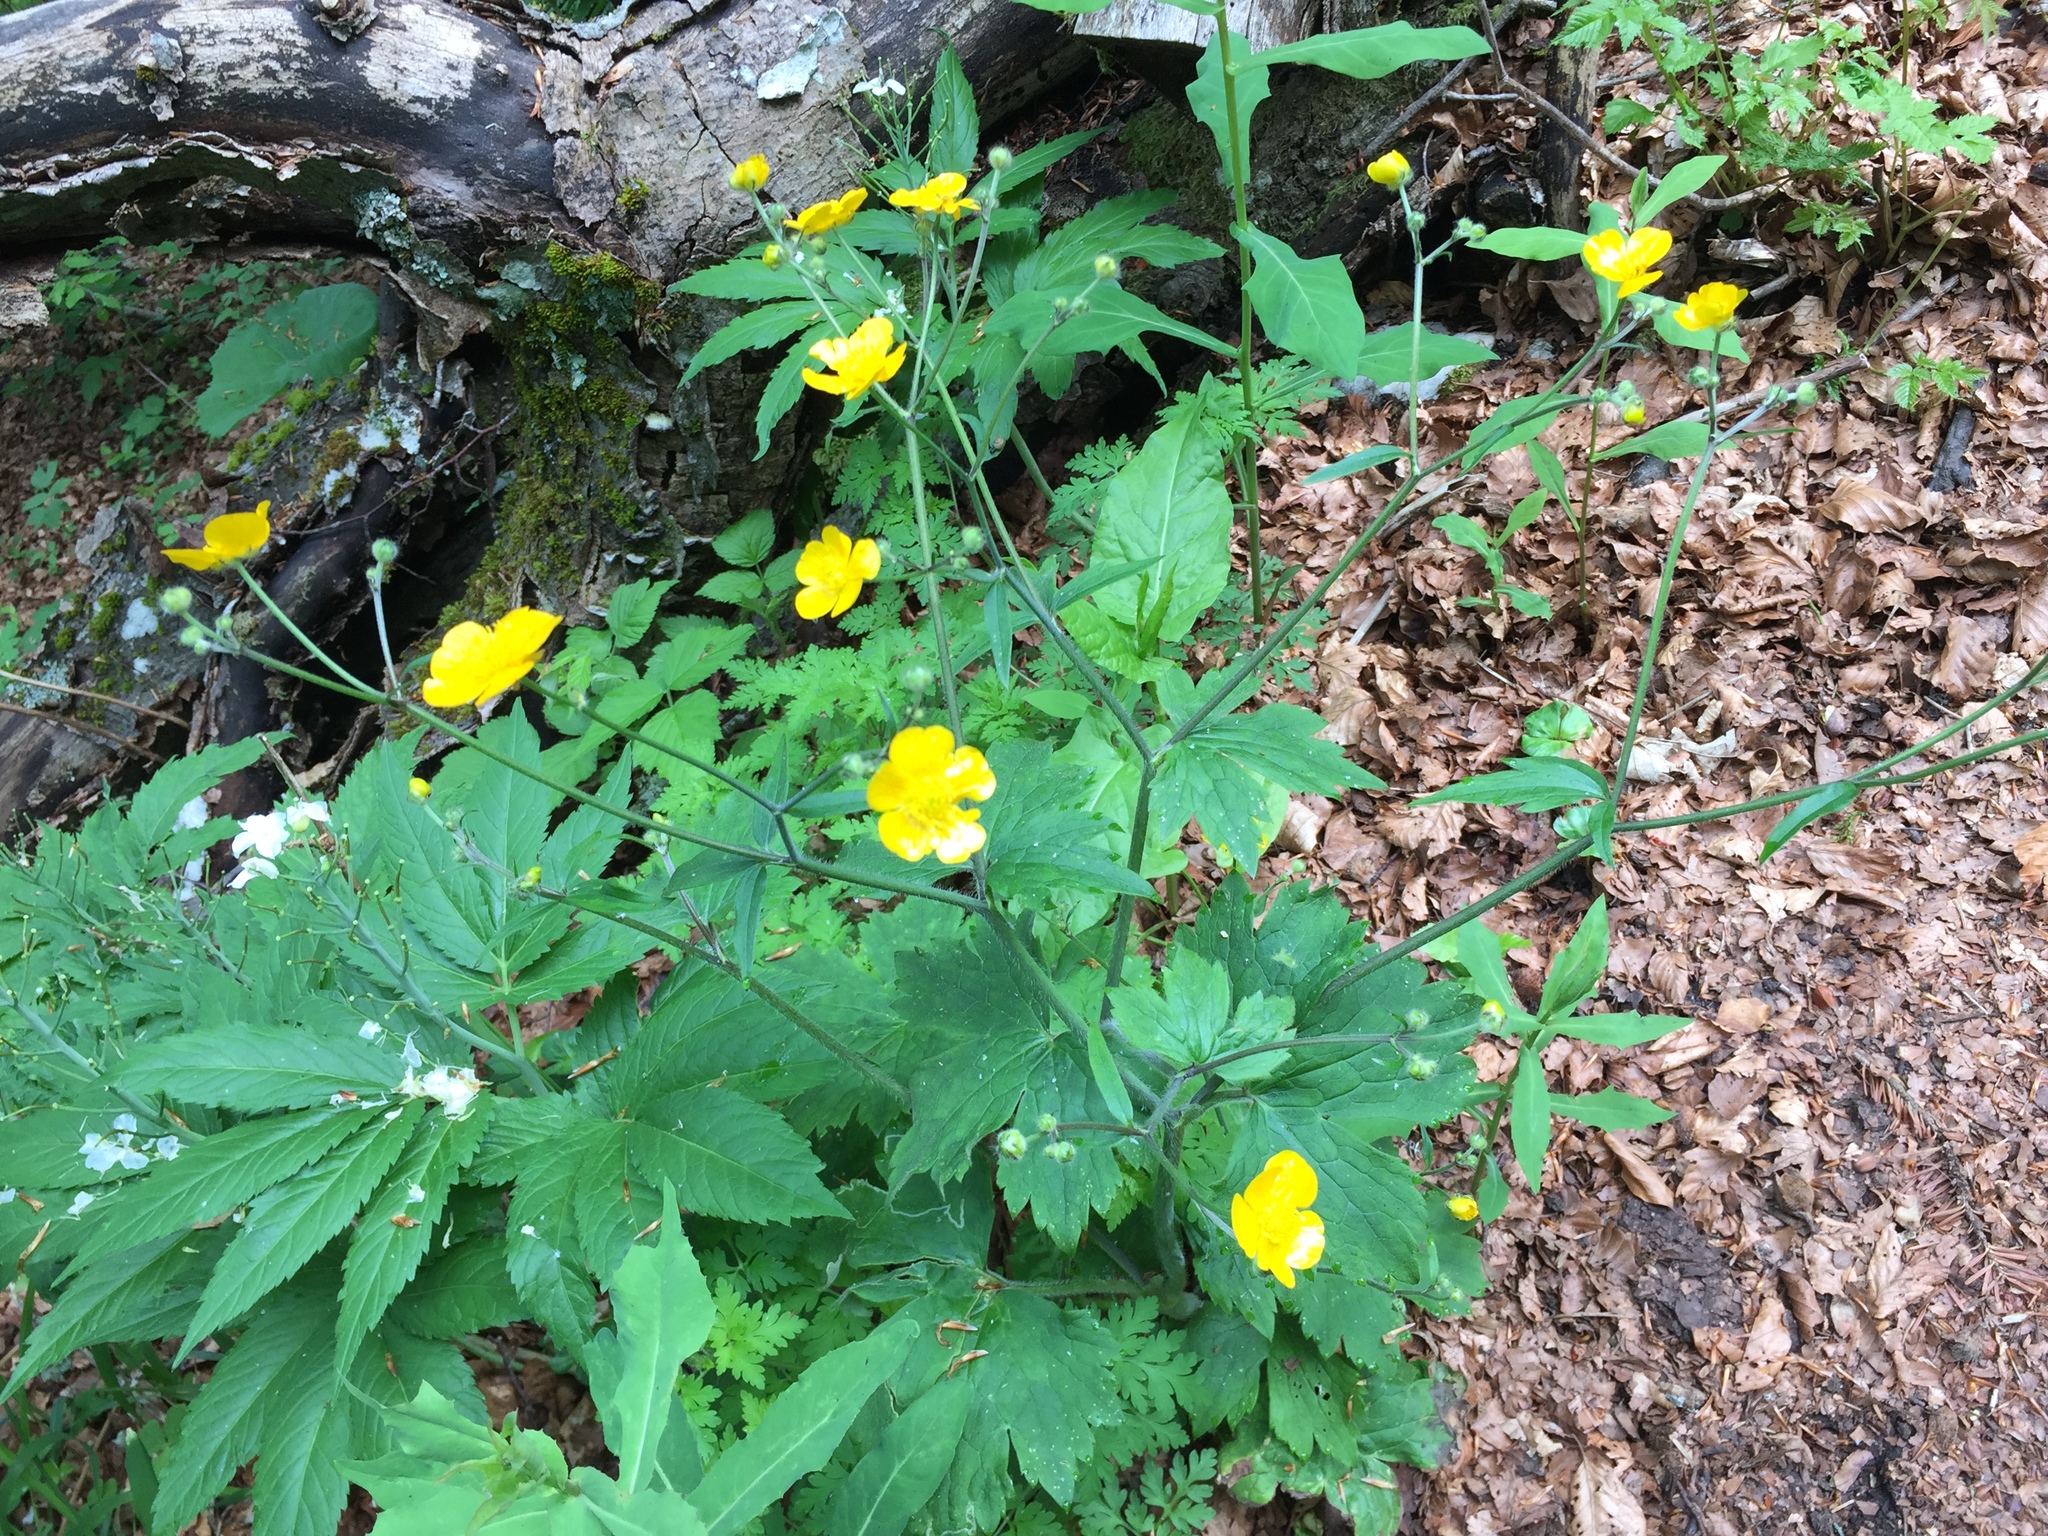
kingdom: Plantae
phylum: Tracheophyta
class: Magnoliopsida
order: Ranunculales
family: Ranunculaceae
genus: Ranunculus
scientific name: Ranunculus lanuginosus
